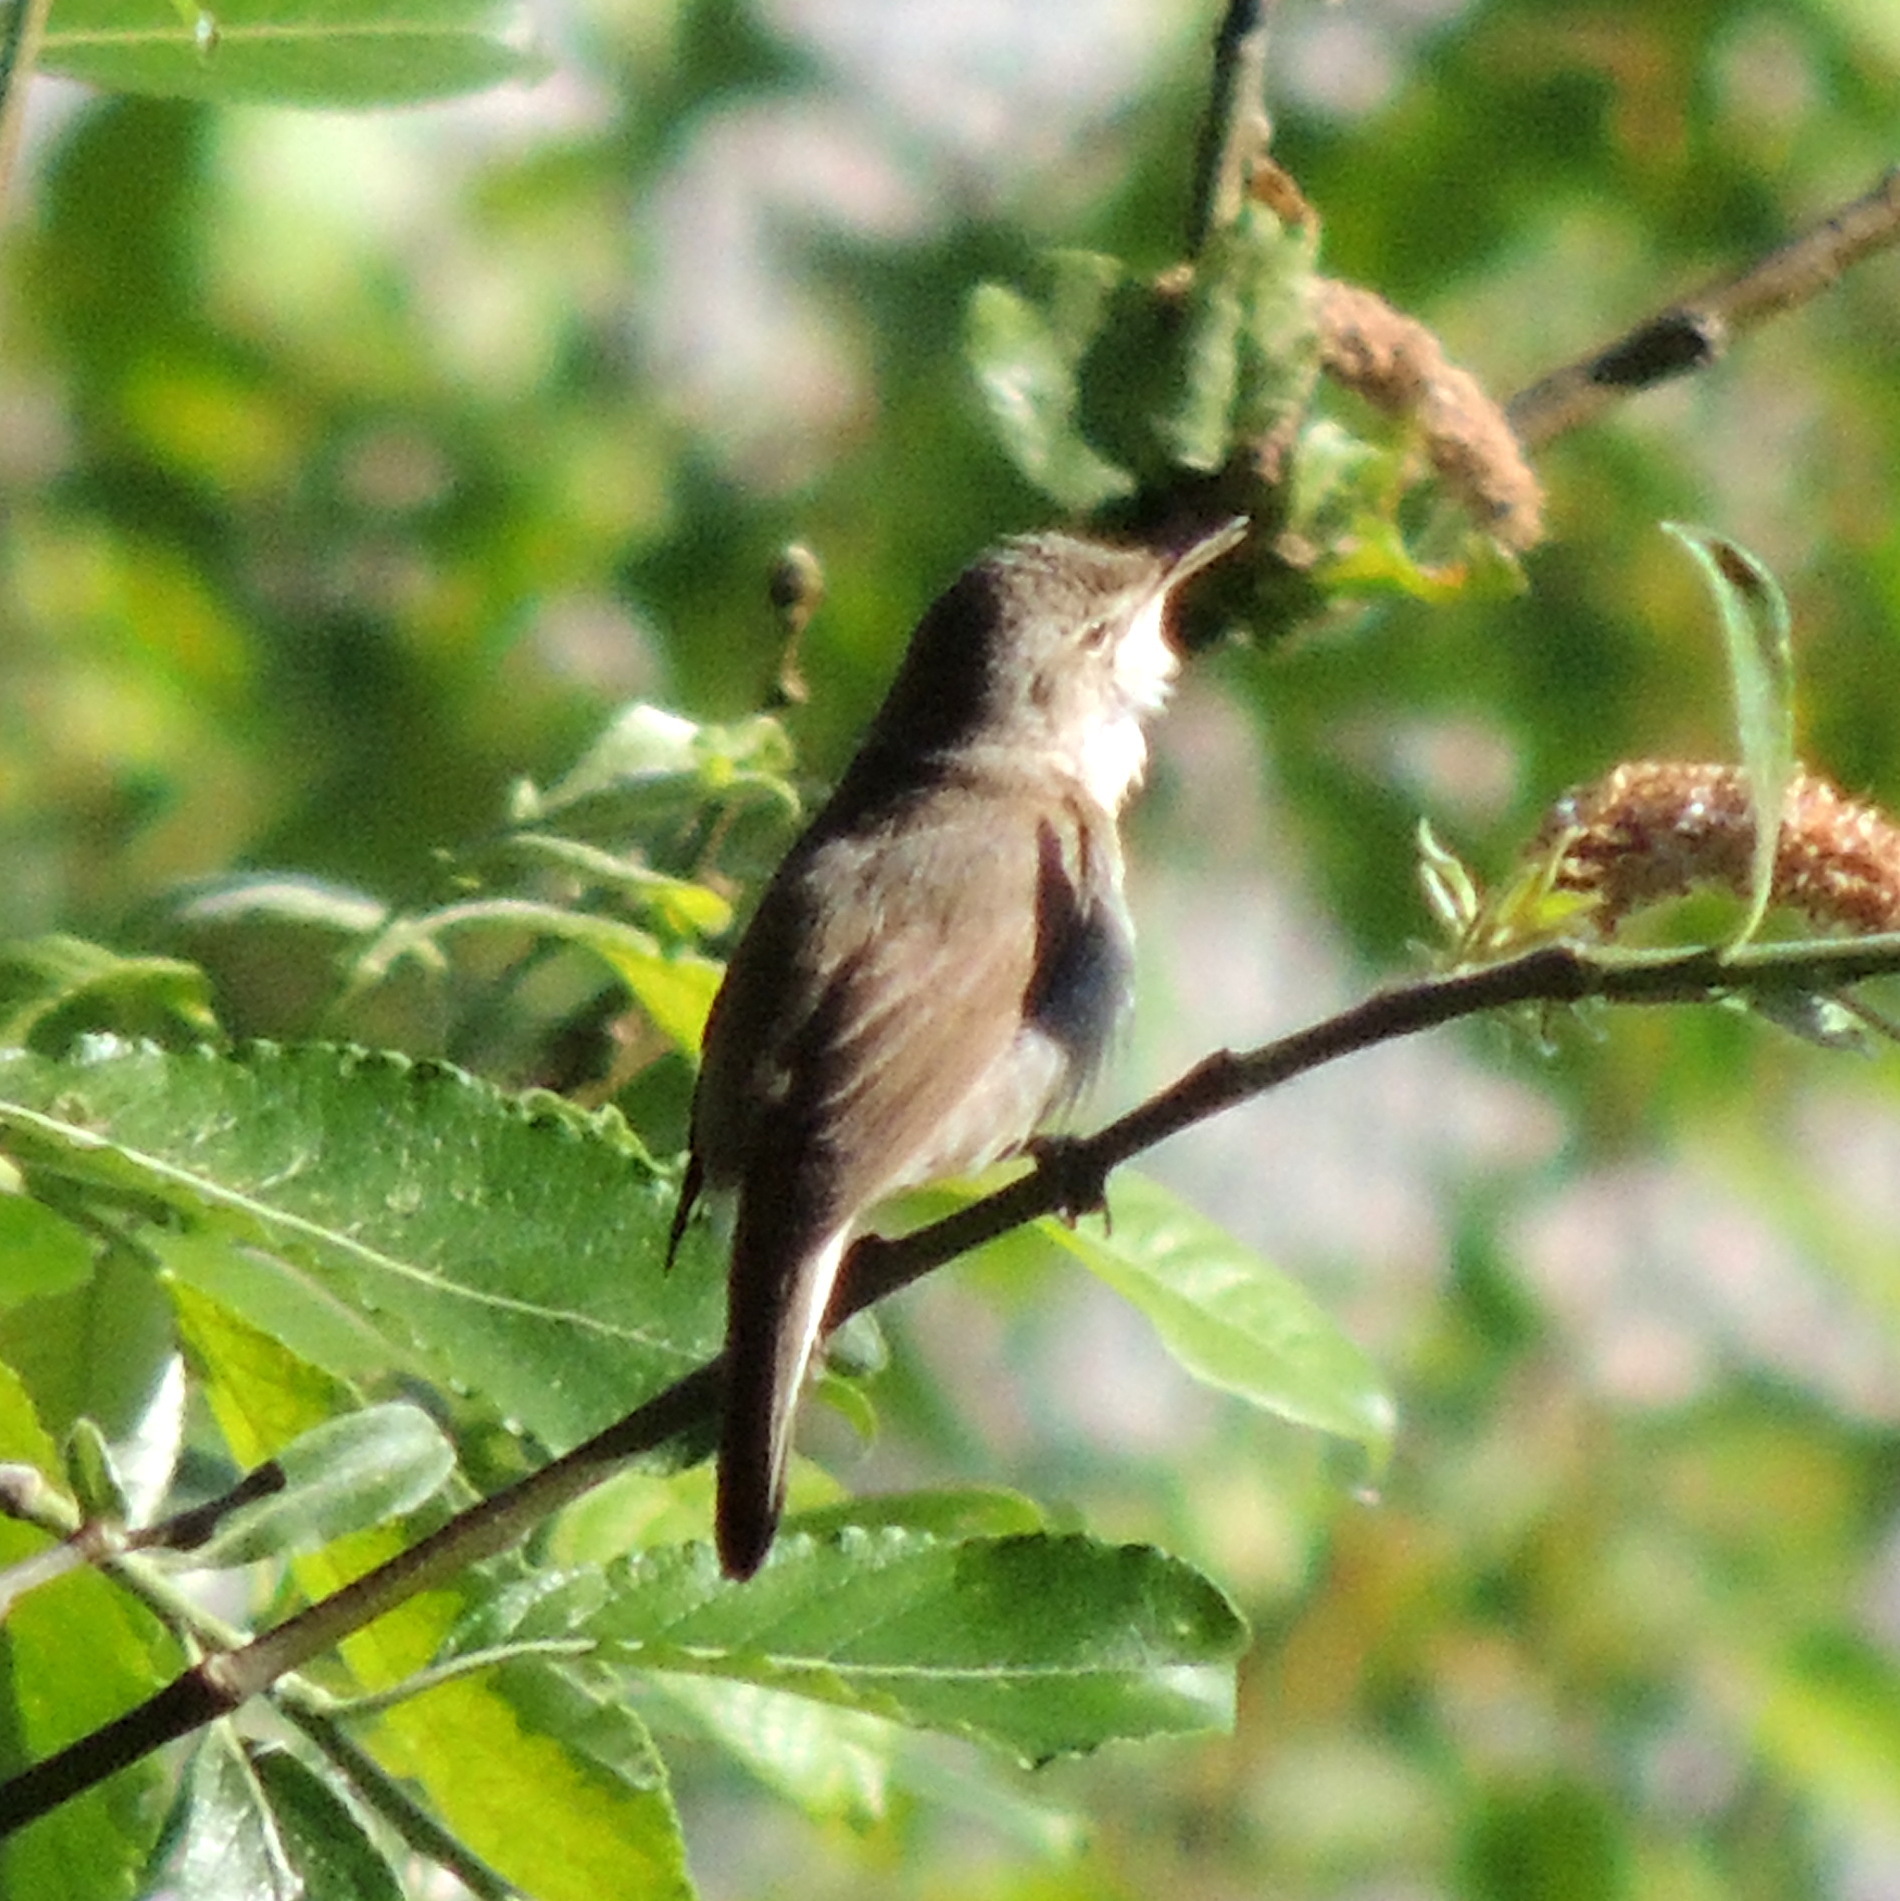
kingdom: Animalia
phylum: Chordata
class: Aves
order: Passeriformes
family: Acrocephalidae
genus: Acrocephalus
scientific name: Acrocephalus dumetorum
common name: Blyth's reed warbler
